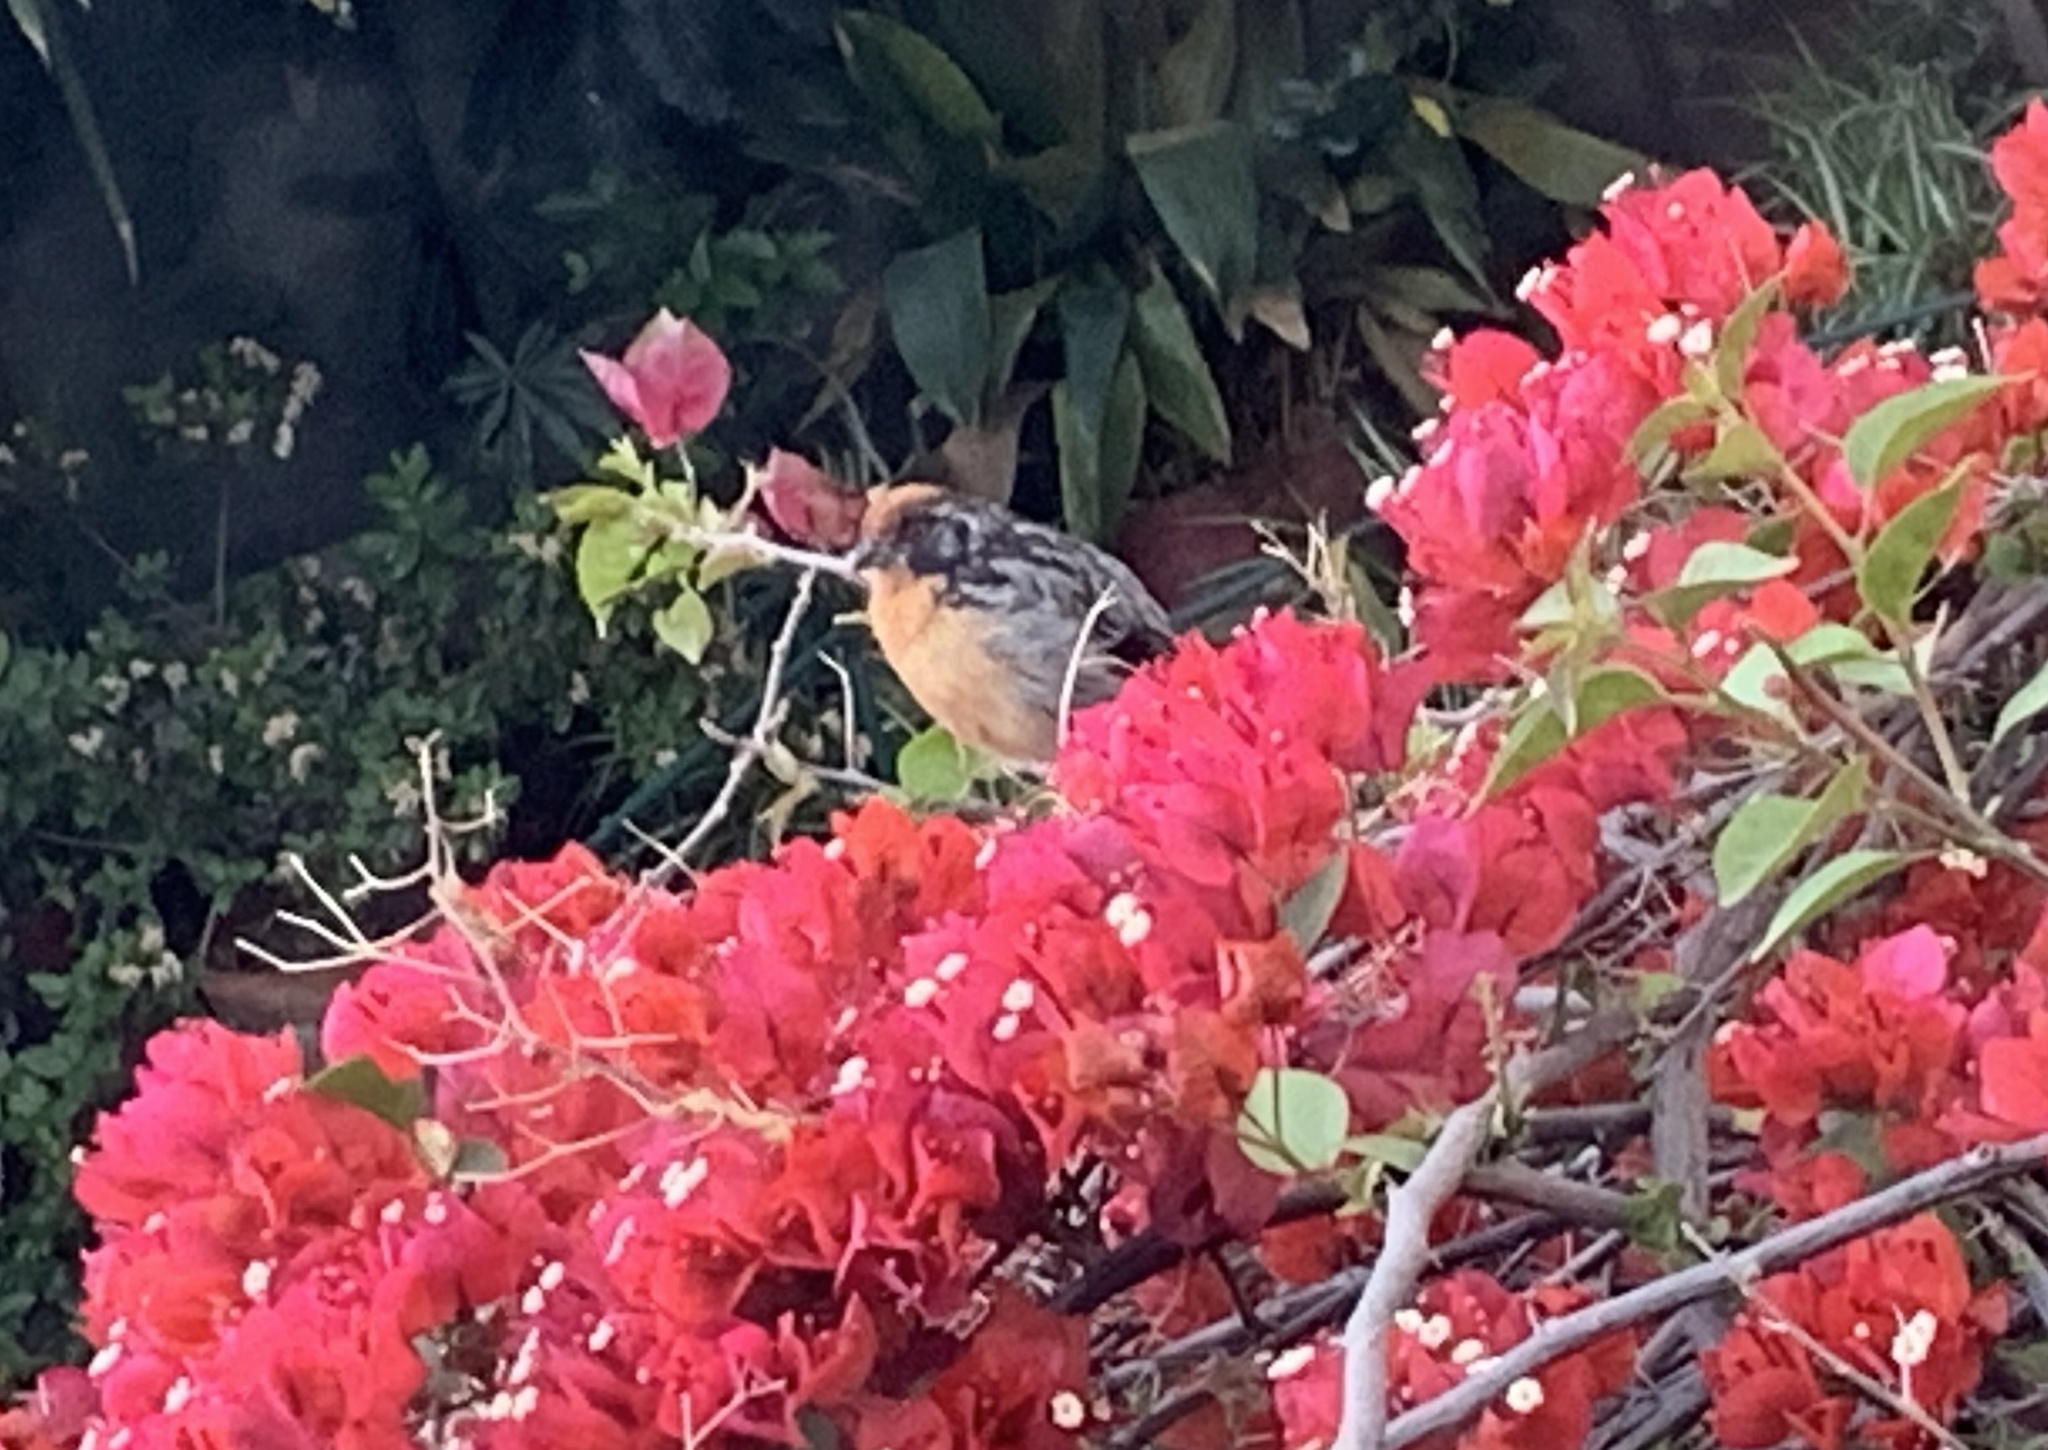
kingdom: Animalia
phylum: Chordata
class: Aves
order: Passeriformes
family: Cotingidae
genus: Phytotoma
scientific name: Phytotoma rara
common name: Rufous-tailed plantcutter
